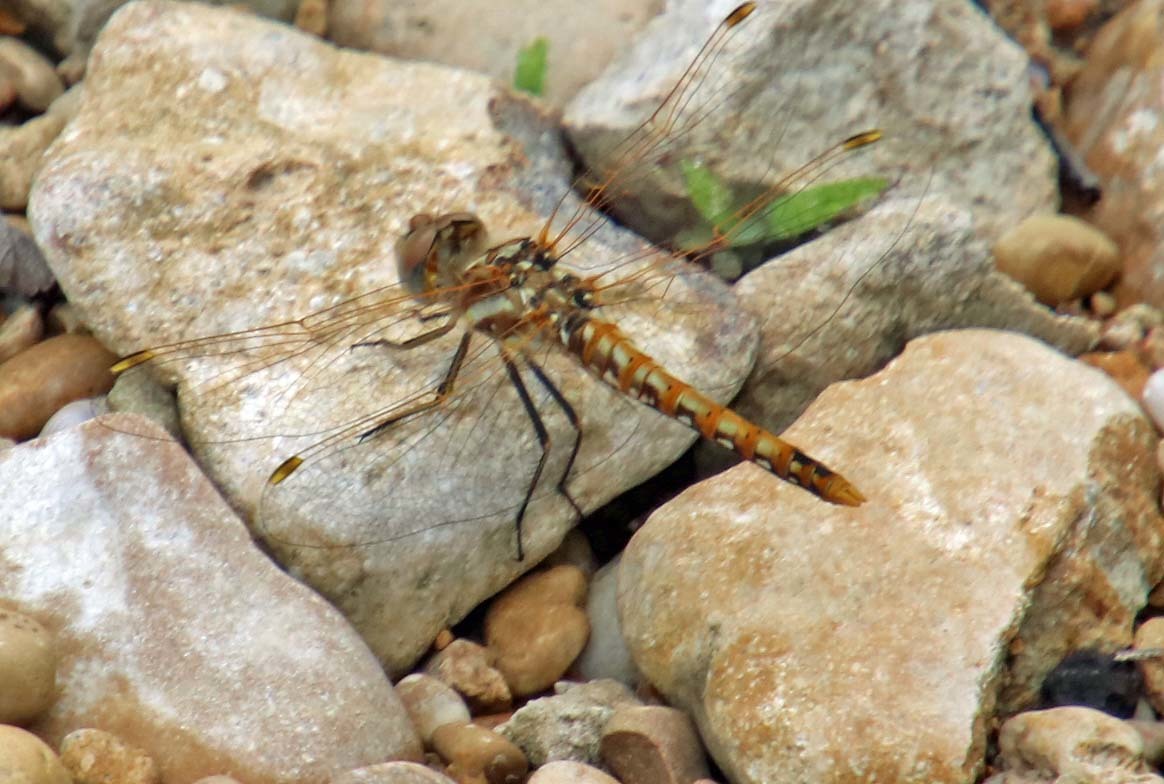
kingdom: Animalia
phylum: Arthropoda
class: Insecta
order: Odonata
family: Libellulidae
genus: Sympetrum
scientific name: Sympetrum corruptum
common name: Variegated meadowhawk
